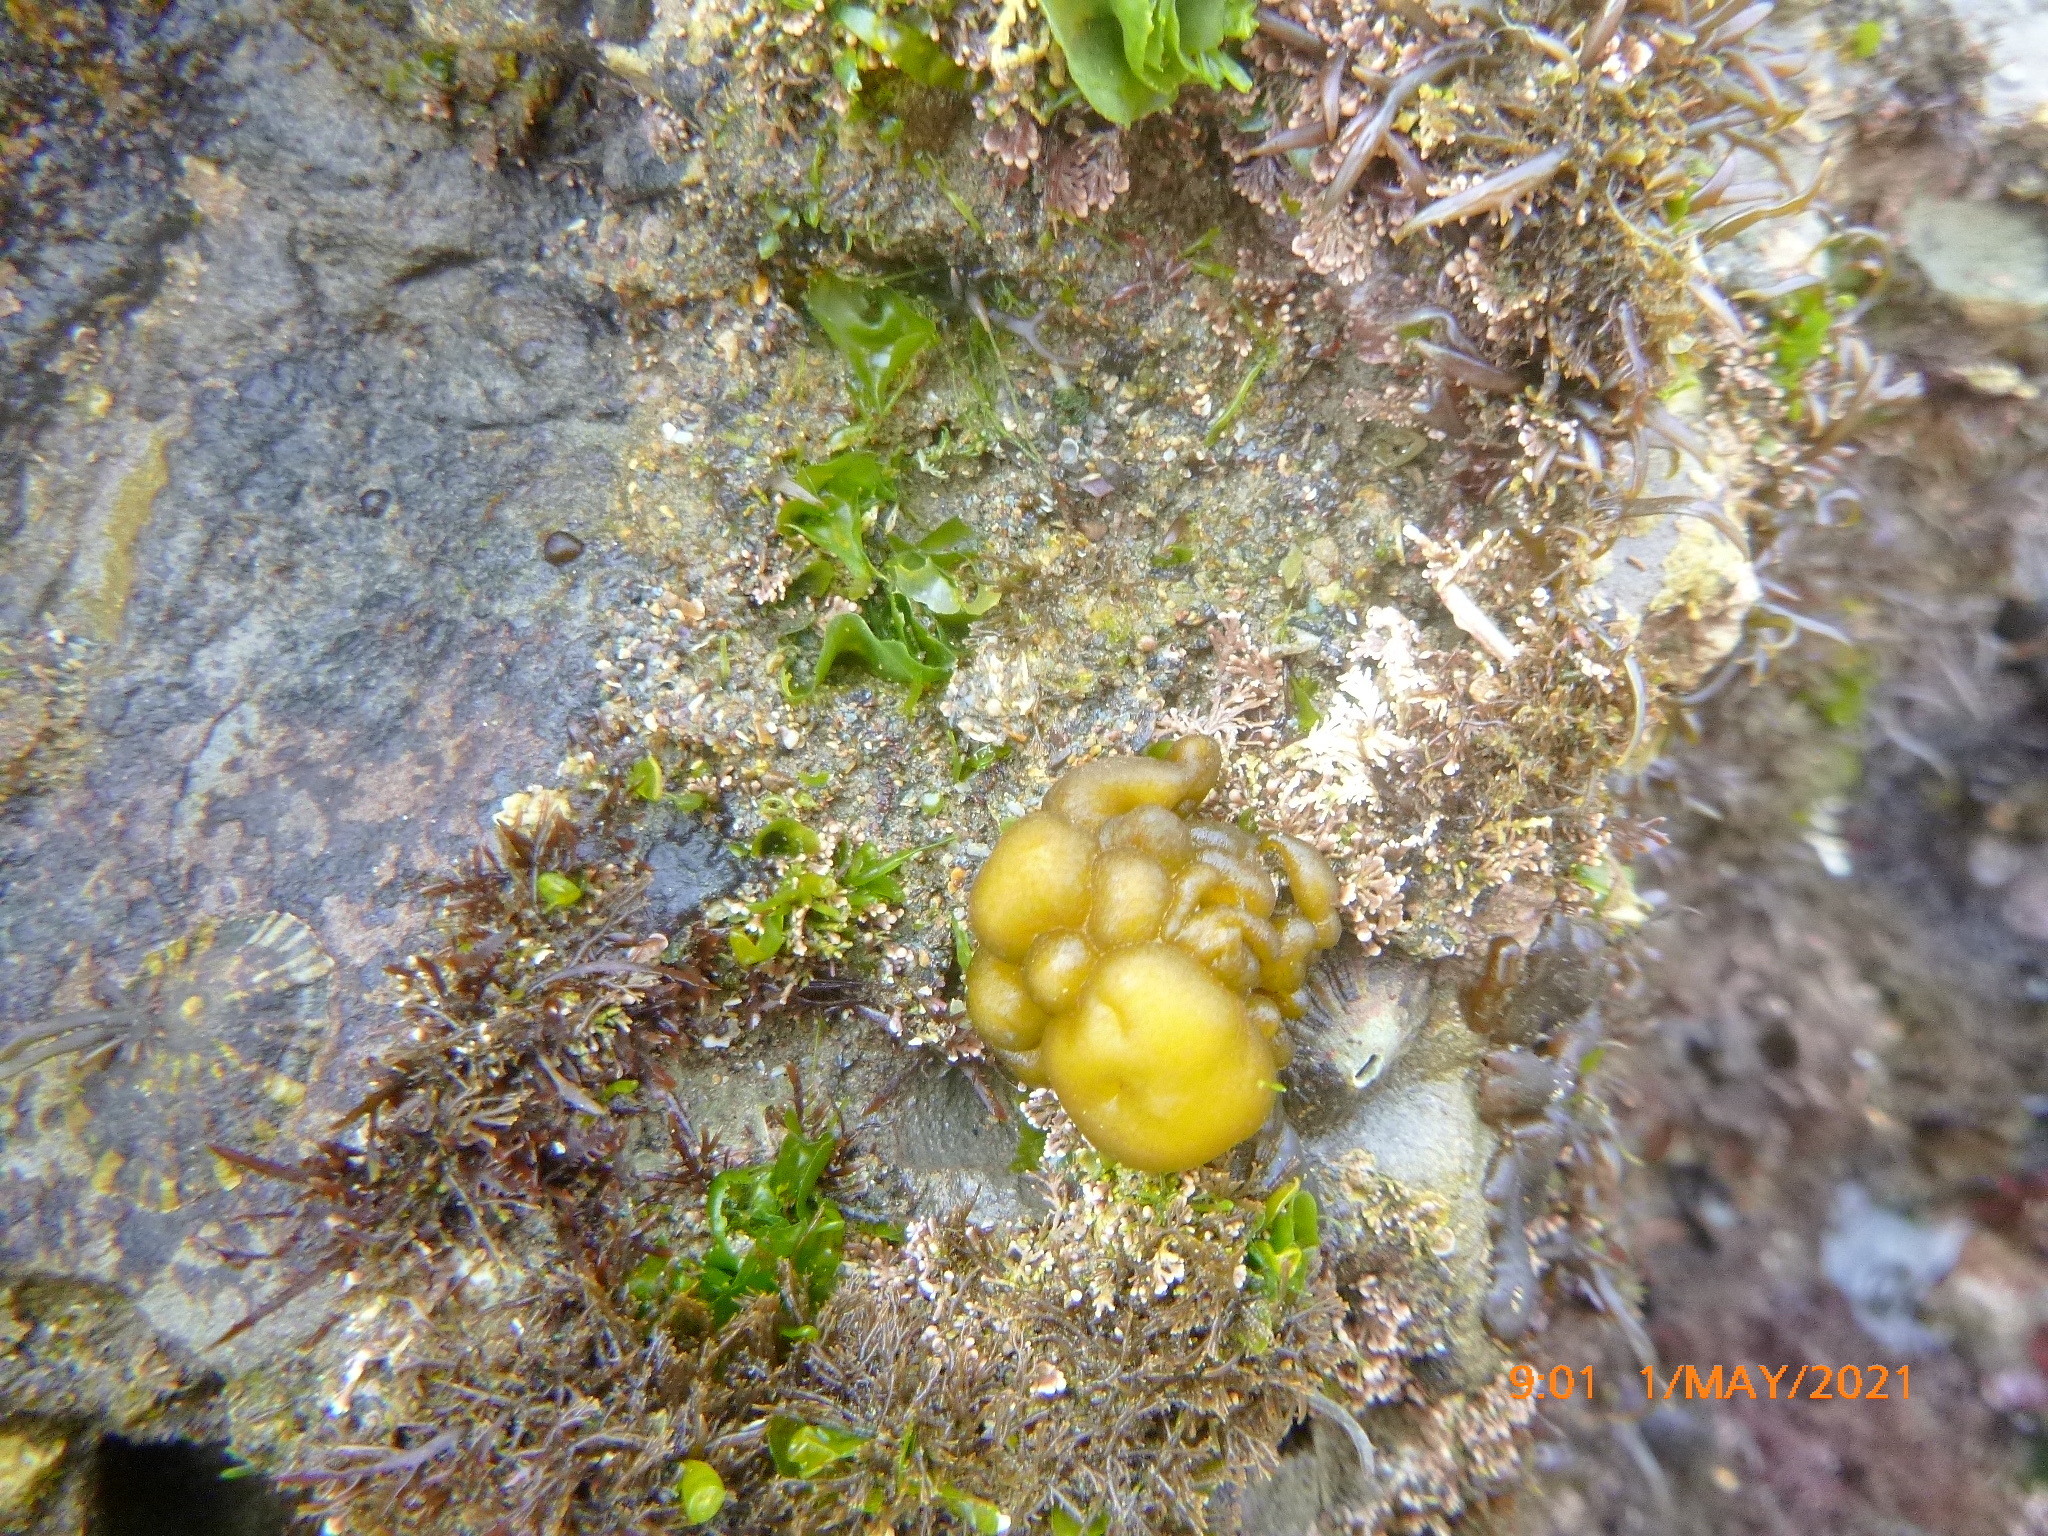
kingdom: Chromista
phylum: Ochrophyta
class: Phaeophyceae
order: Scytosiphonales
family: Scytosiphonaceae
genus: Colpomenia
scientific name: Colpomenia peregrina
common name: Oyster thief
